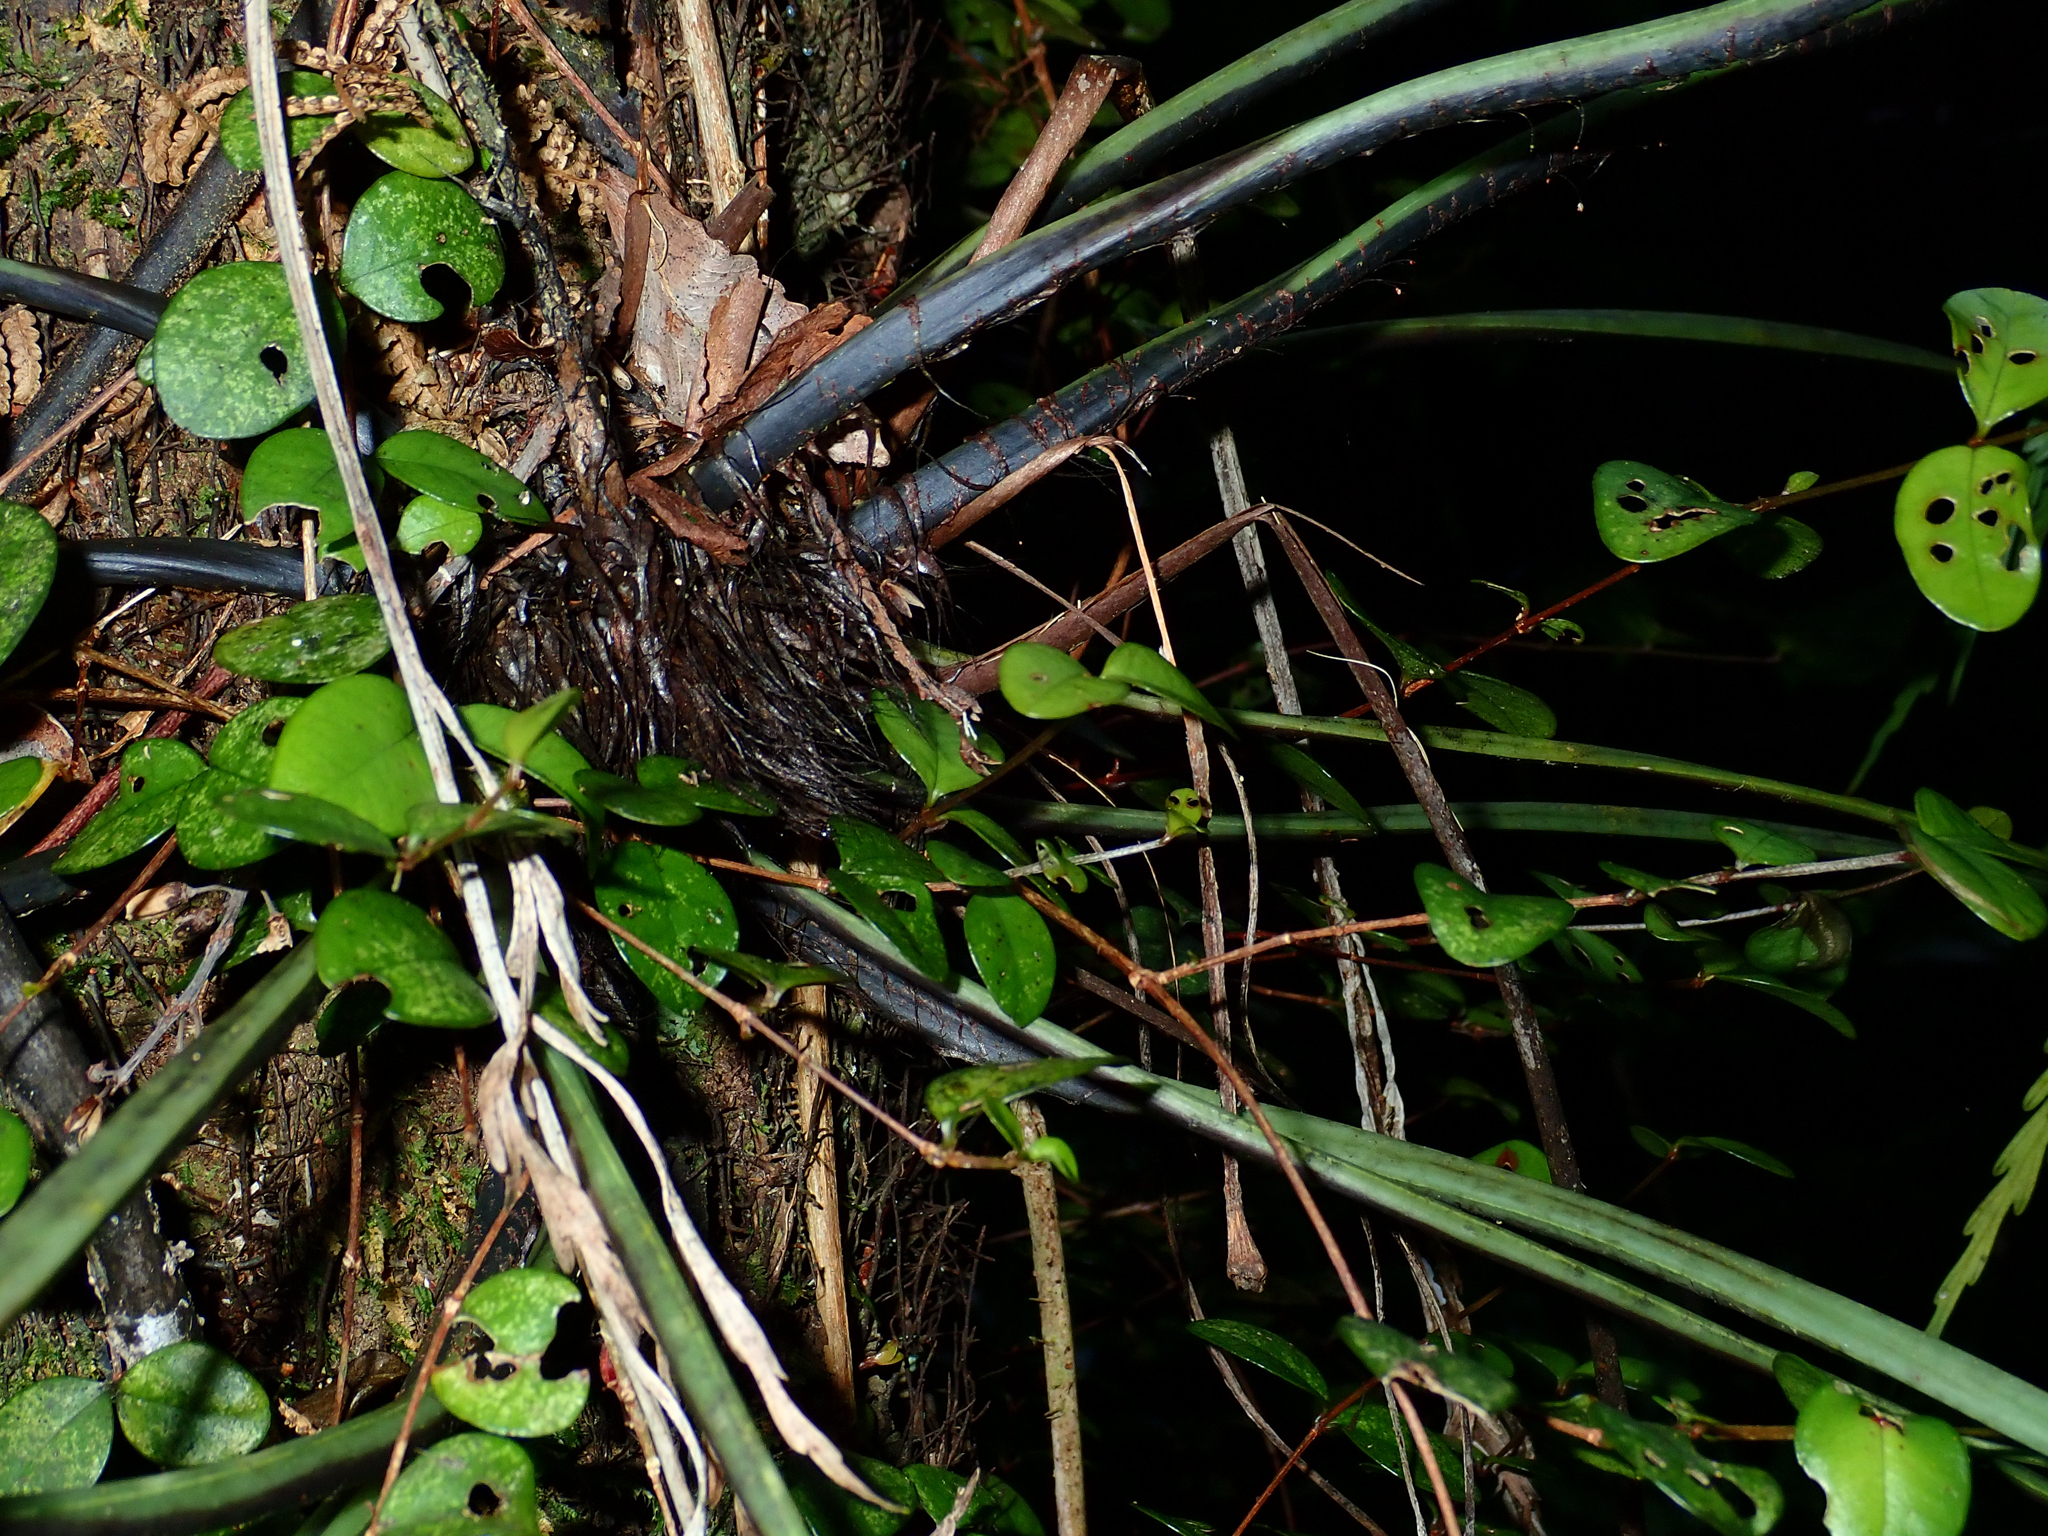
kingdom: Plantae
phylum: Tracheophyta
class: Polypodiopsida
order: Polypodiales
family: Aspleniaceae
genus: Asplenium
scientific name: Asplenium flaccidum
